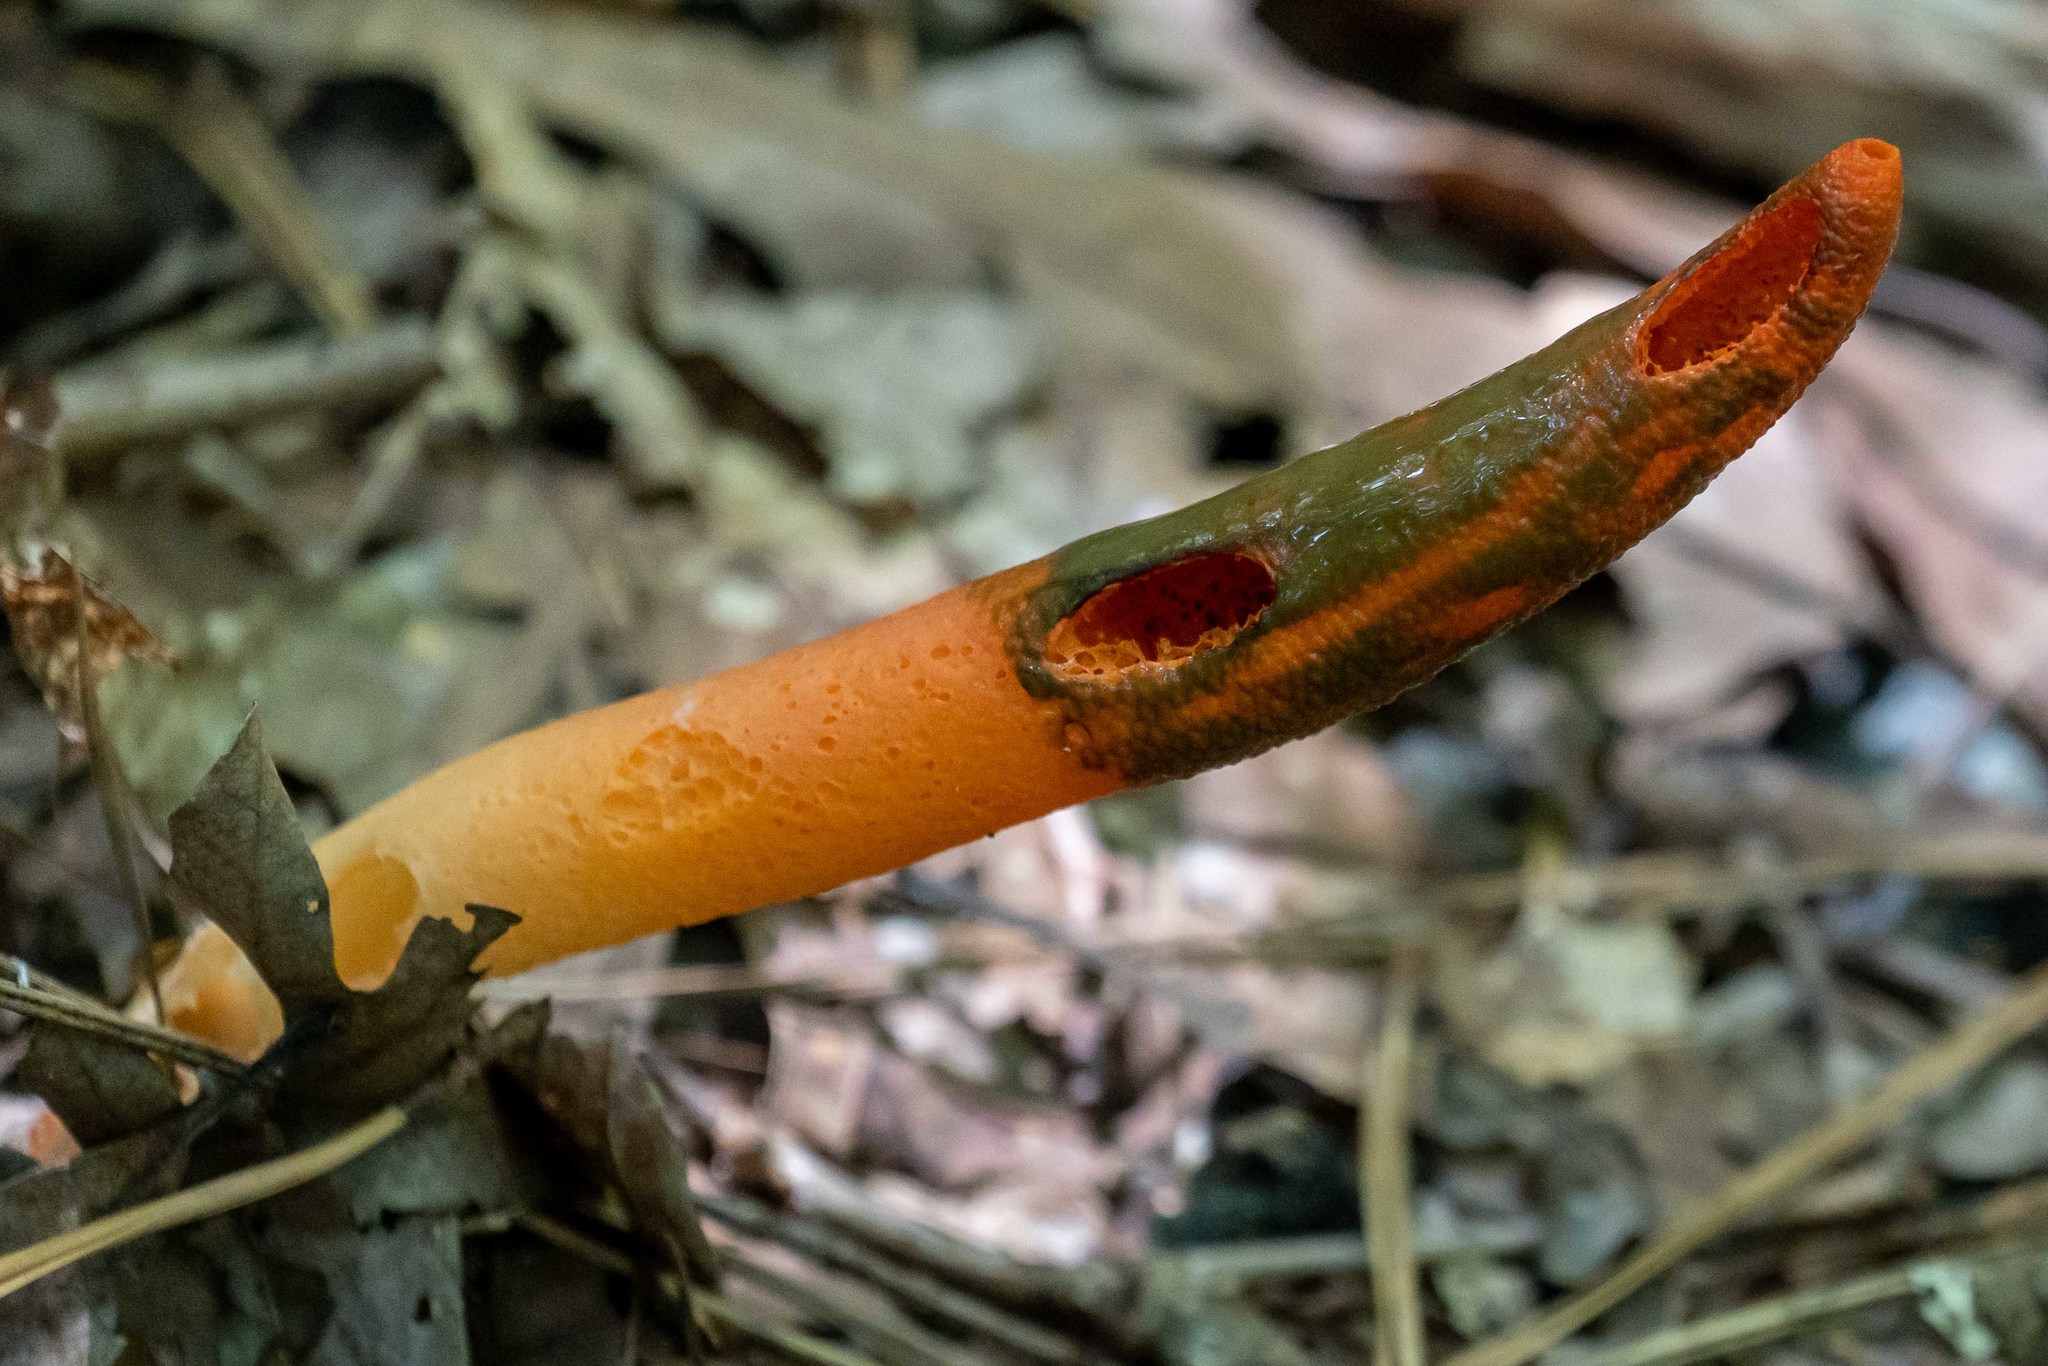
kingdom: Fungi
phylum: Basidiomycota
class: Agaricomycetes
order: Phallales
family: Phallaceae
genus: Mutinus
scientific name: Mutinus elegans
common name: Devil's dipstick
